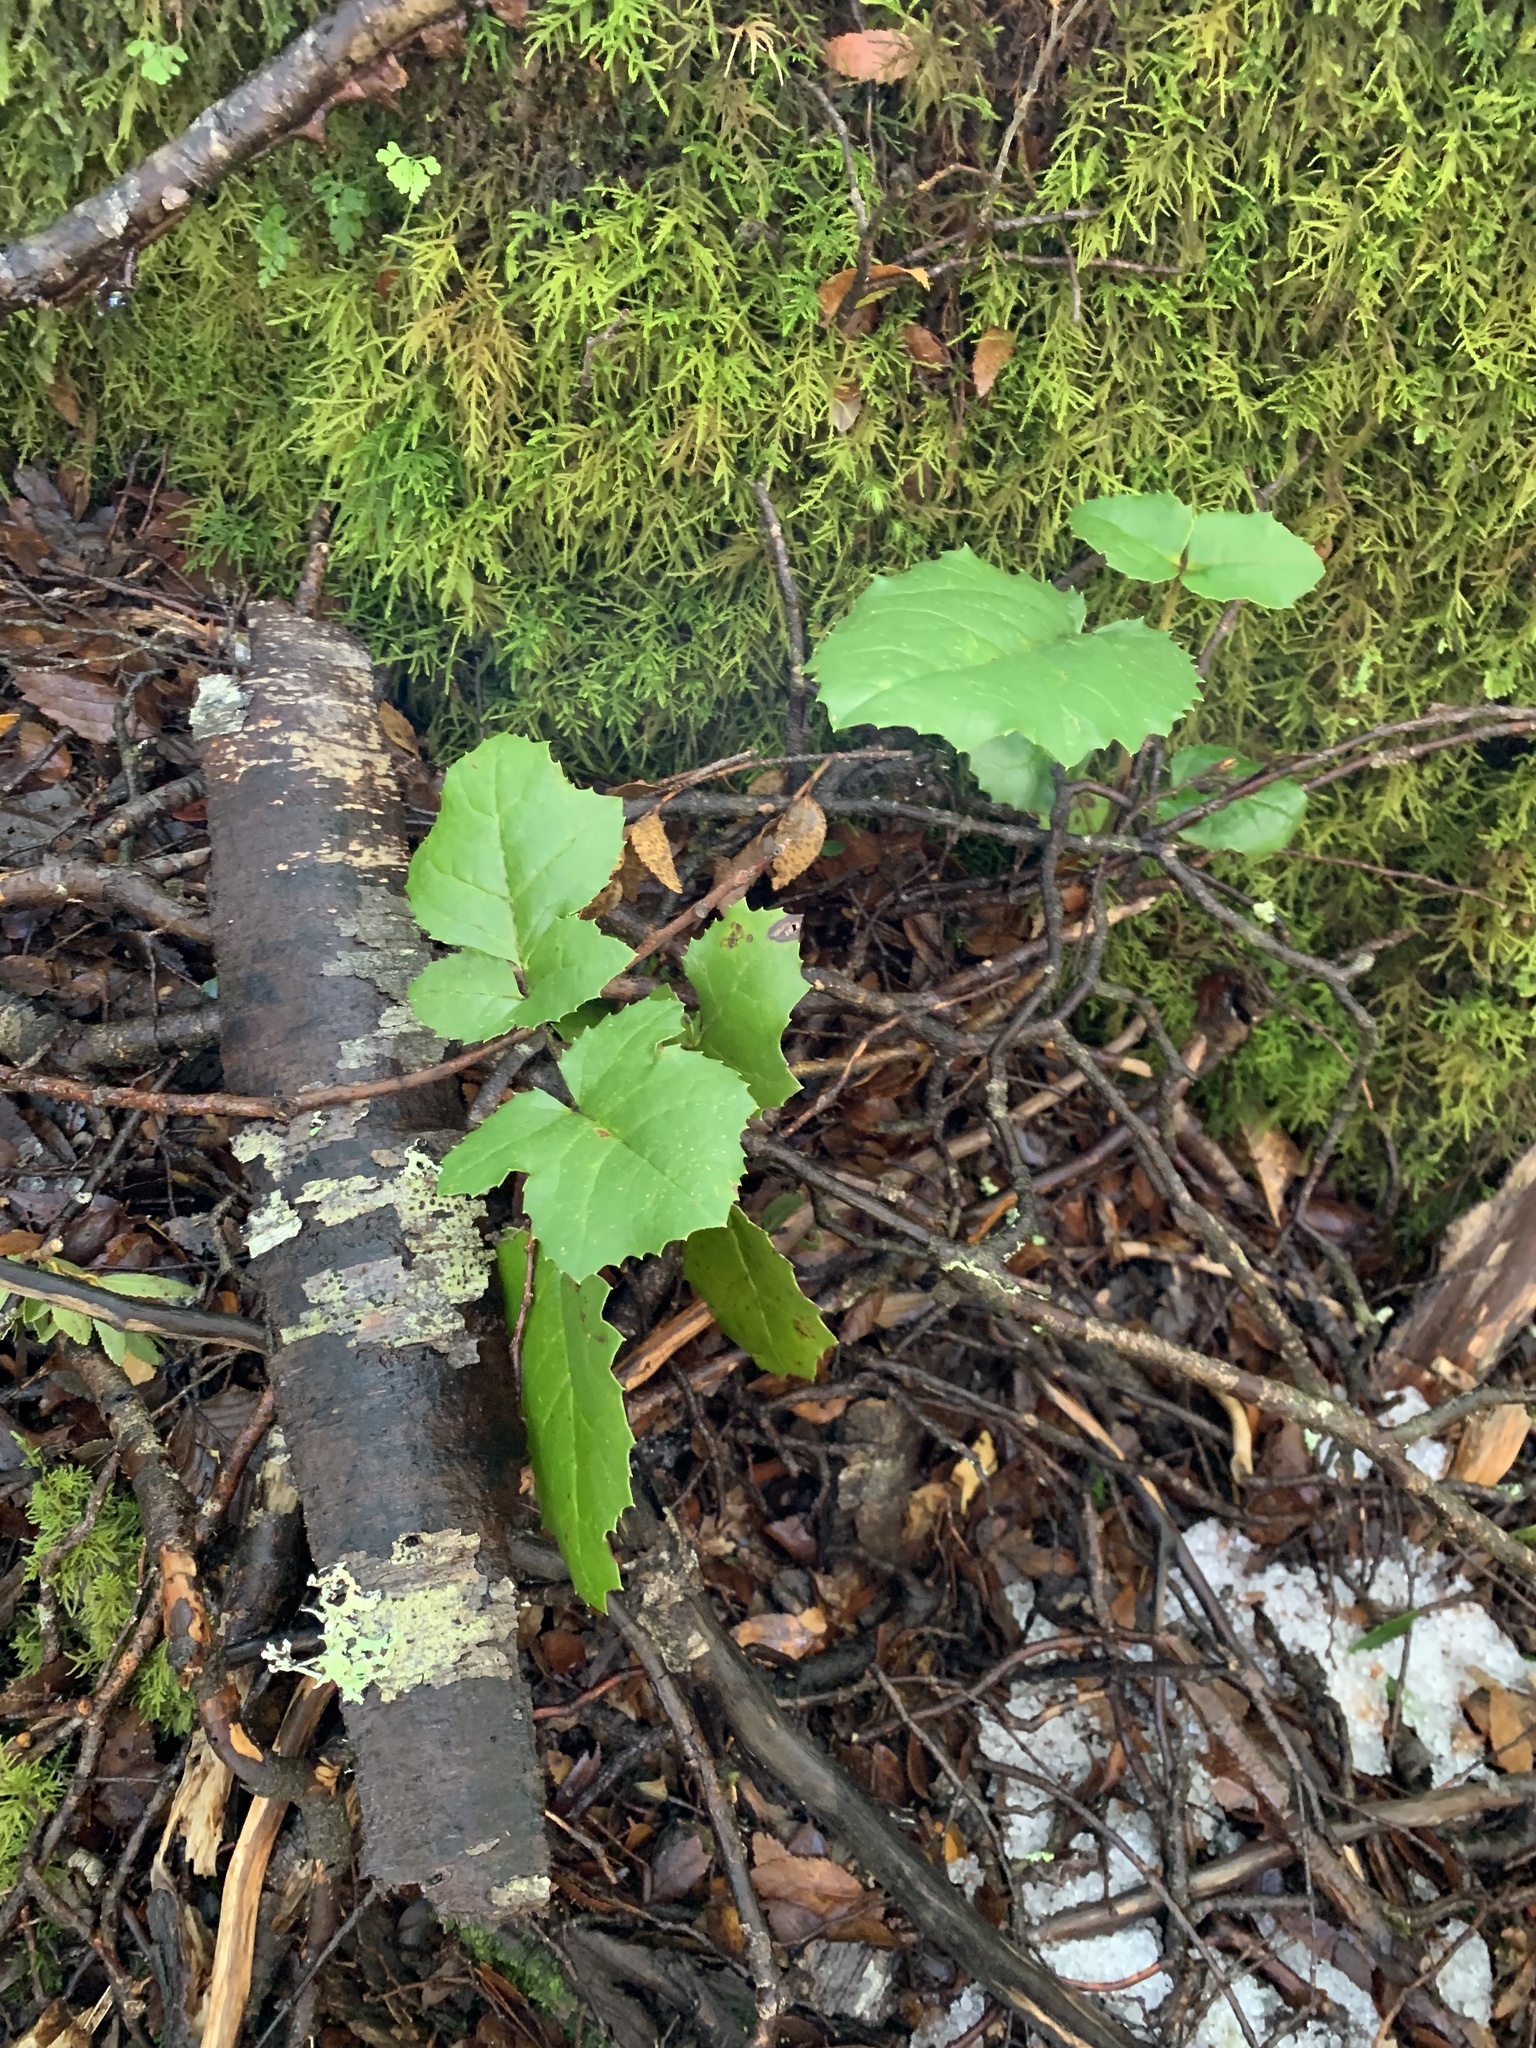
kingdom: Plantae
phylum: Tracheophyta
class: Magnoliopsida
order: Proteales
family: Proteaceae
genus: Gevuina
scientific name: Gevuina avellana
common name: Chilean hazel
